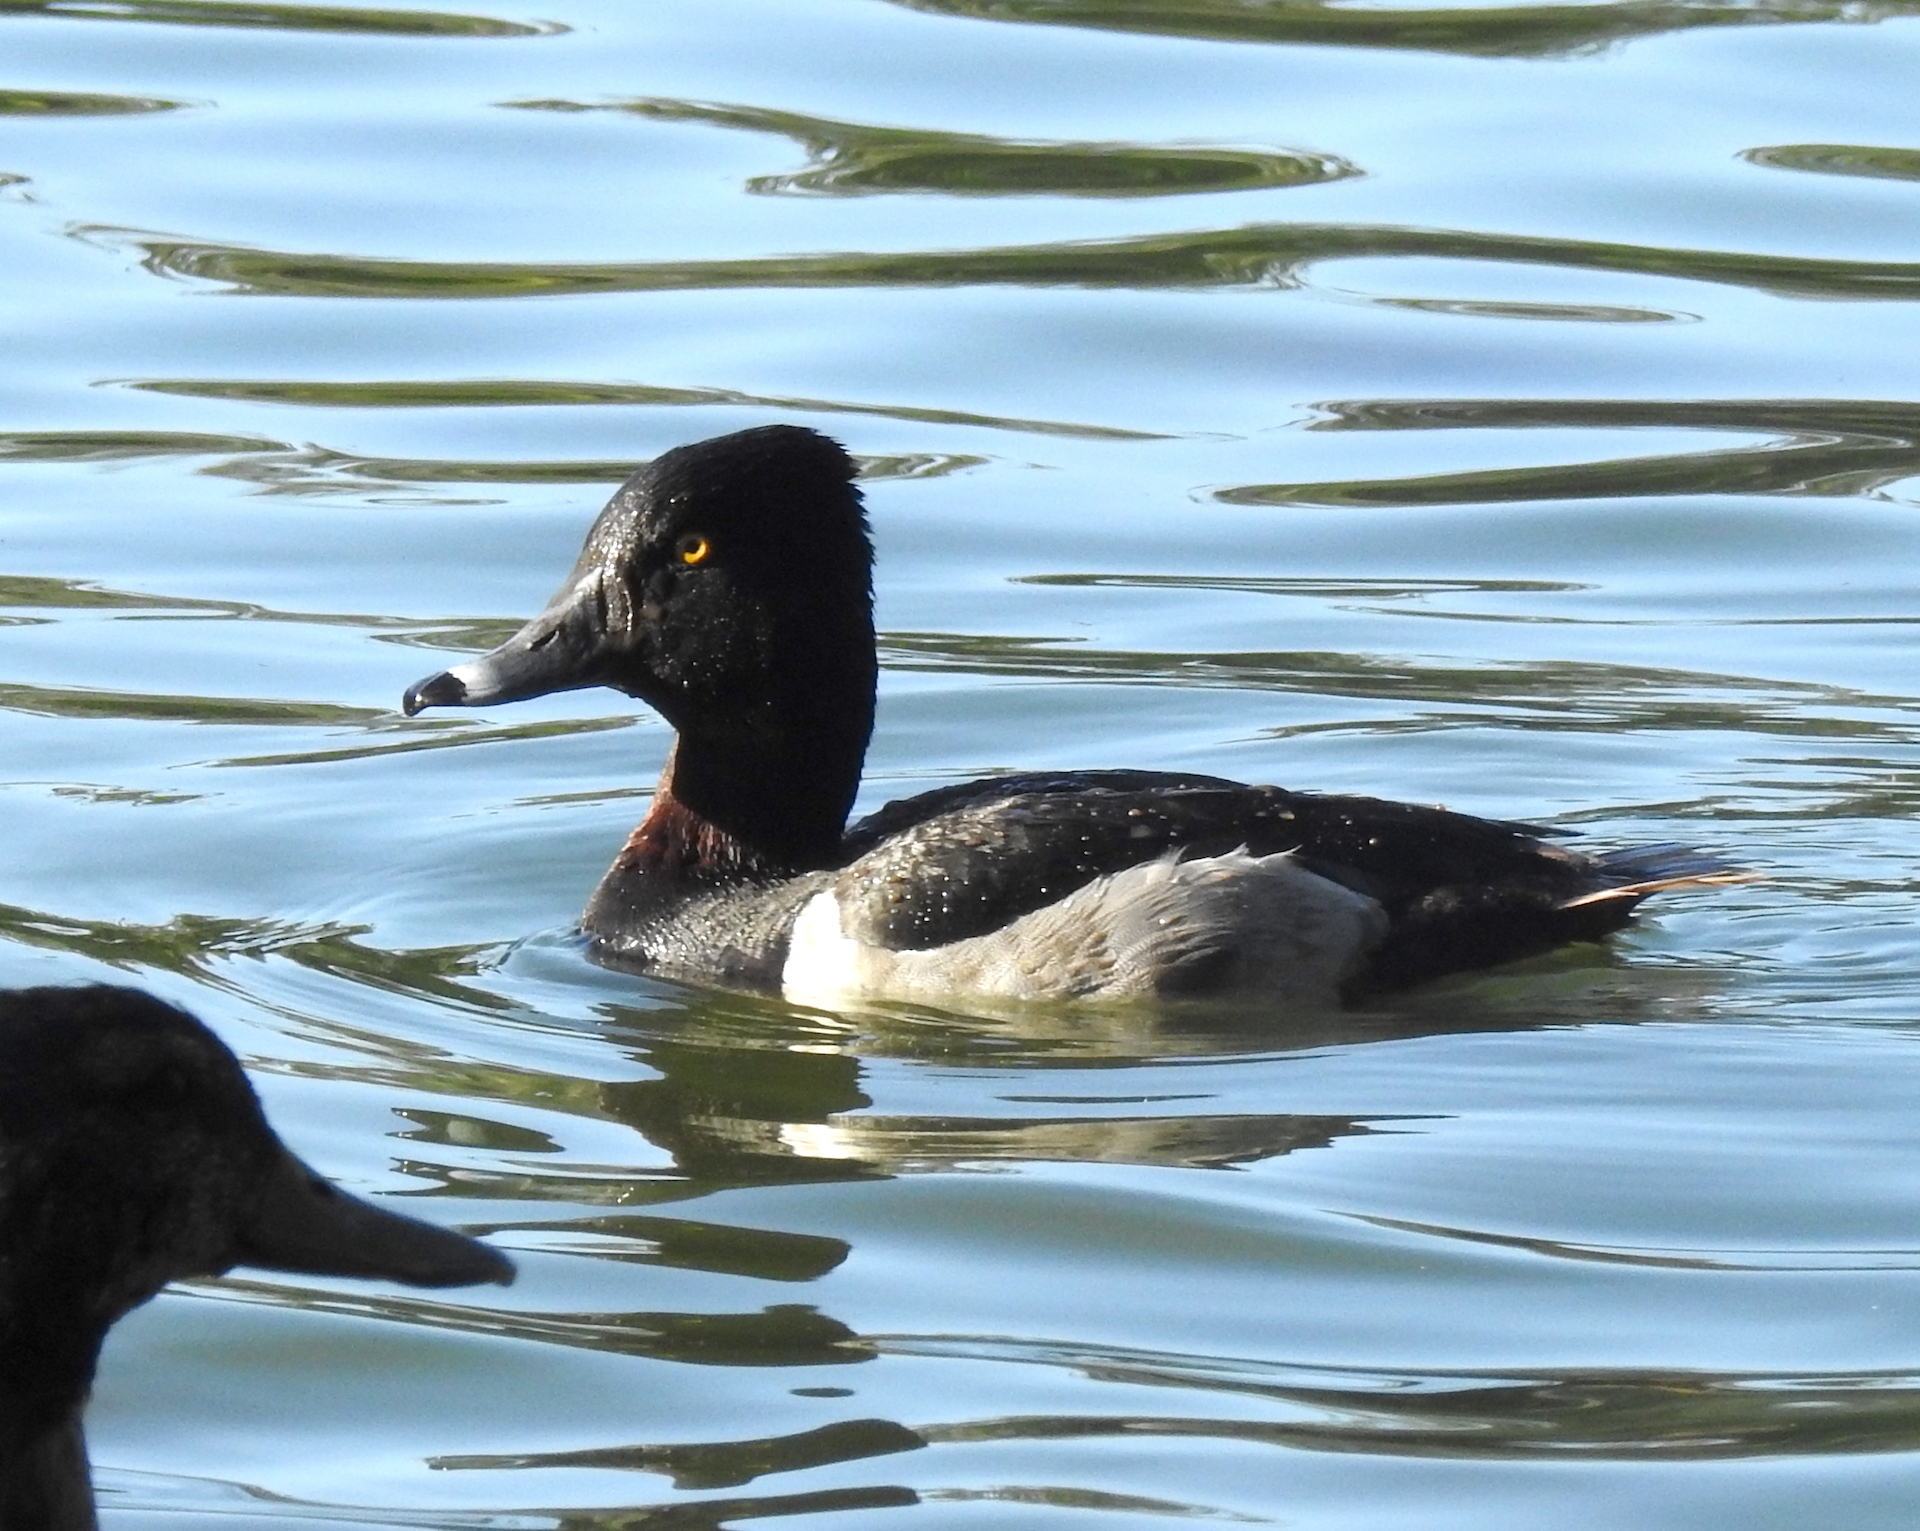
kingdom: Animalia
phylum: Chordata
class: Aves
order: Anseriformes
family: Anatidae
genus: Aythya
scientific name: Aythya collaris
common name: Ring-necked duck
